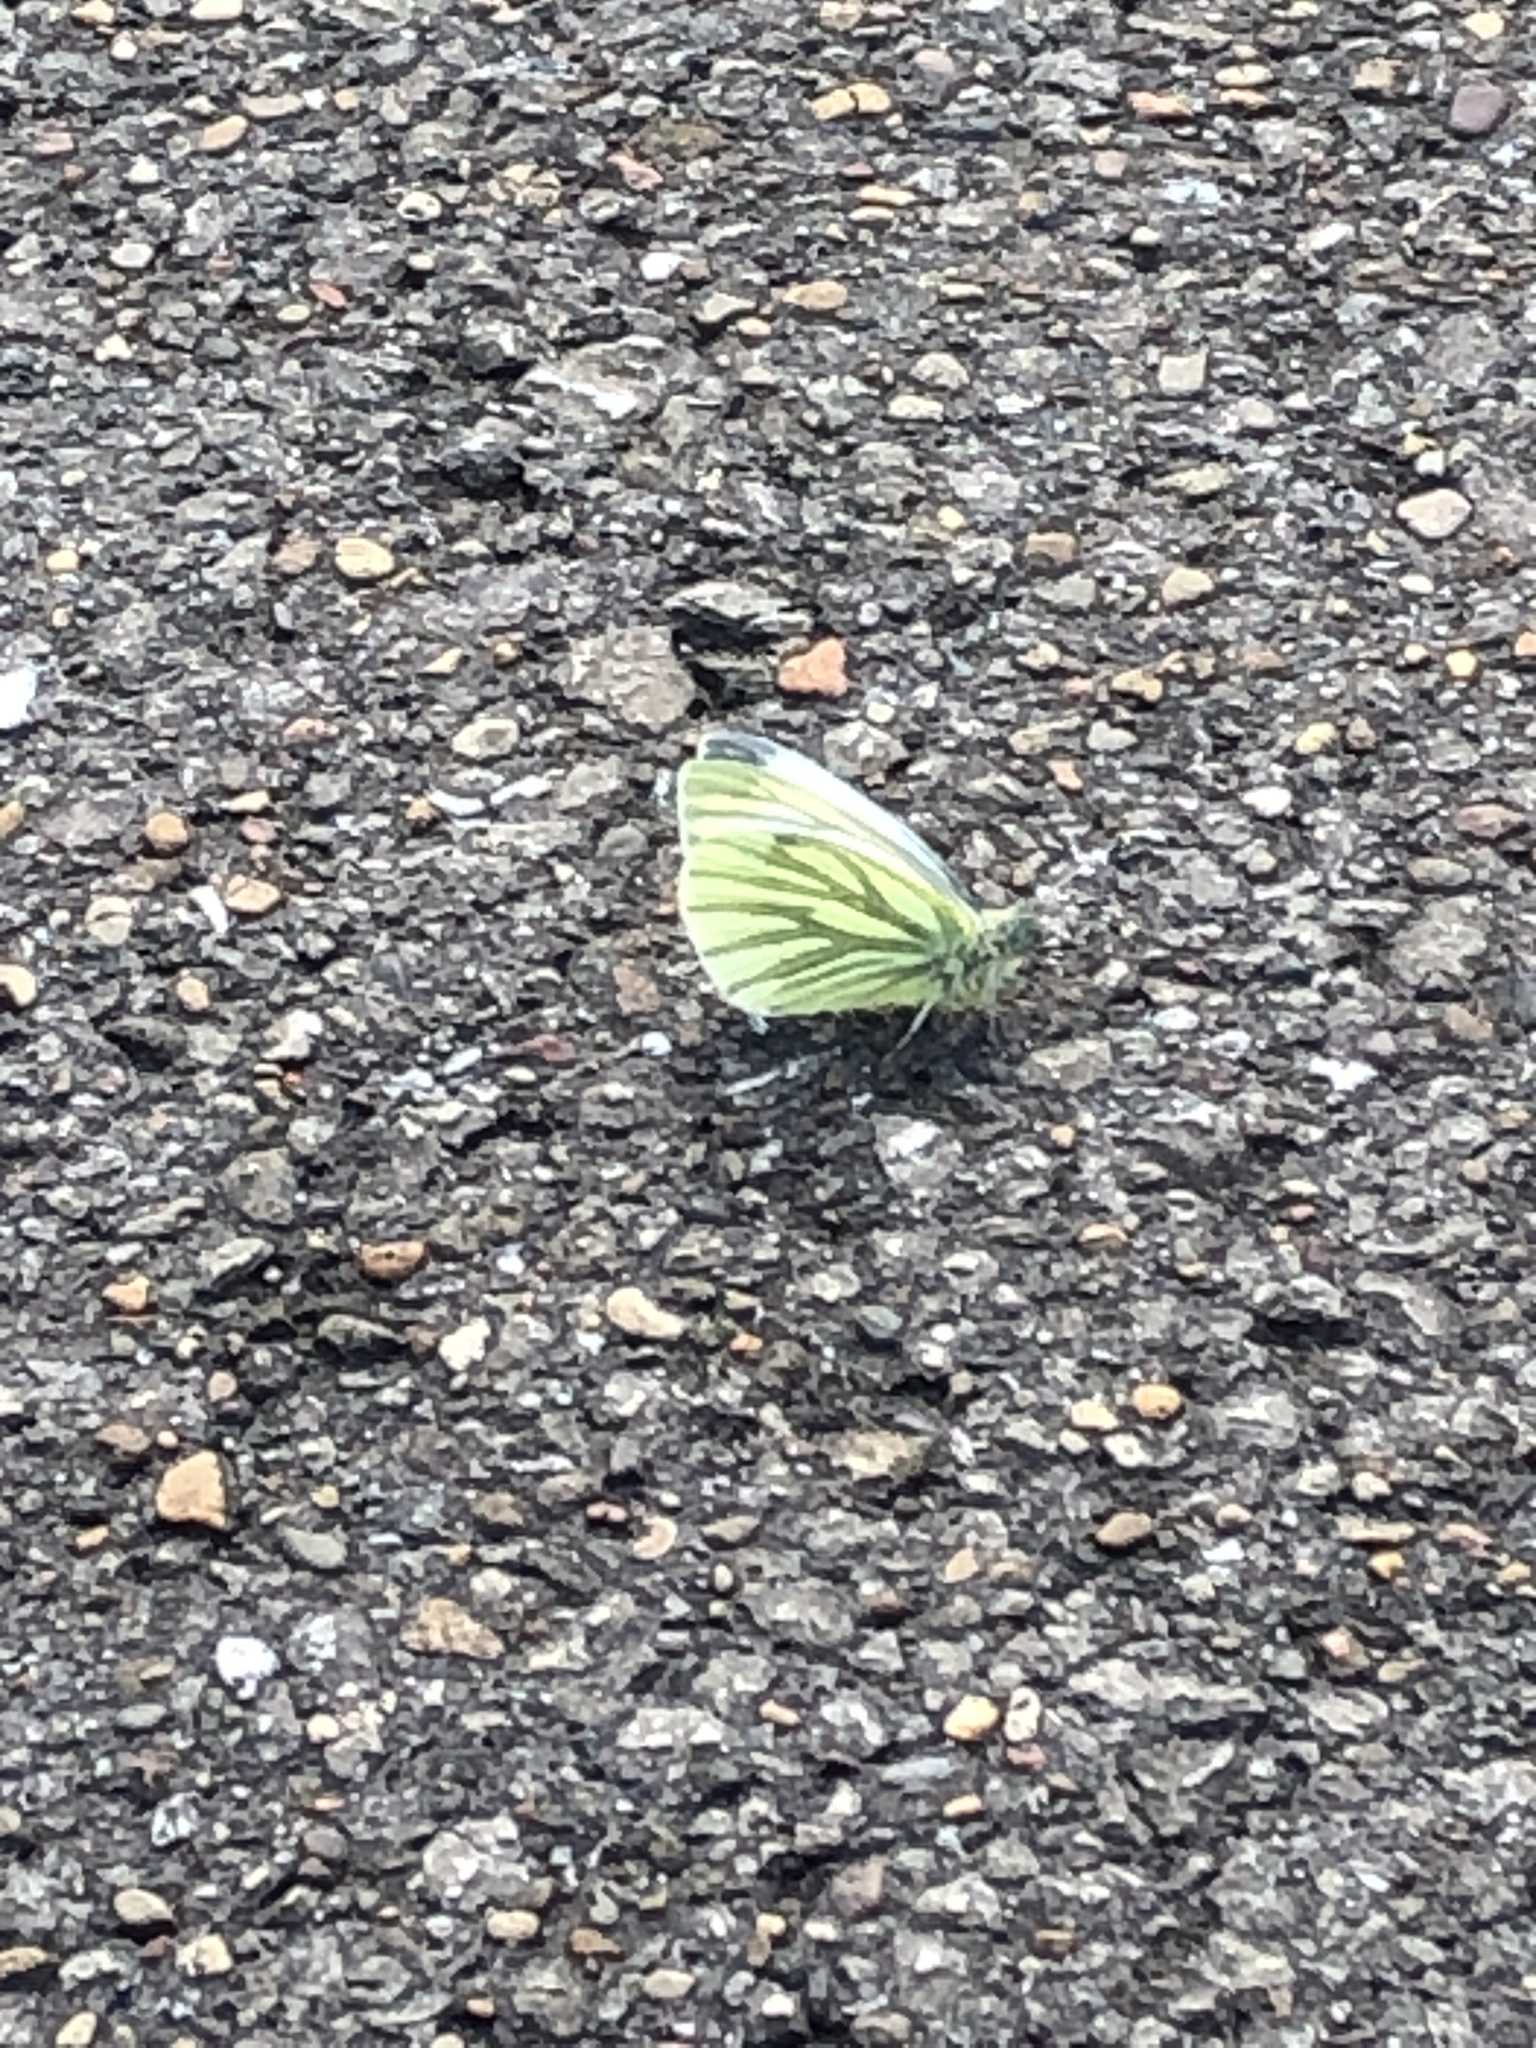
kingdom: Animalia
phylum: Arthropoda
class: Insecta
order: Lepidoptera
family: Pieridae
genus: Pieris
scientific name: Pieris napi
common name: Green-veined white
